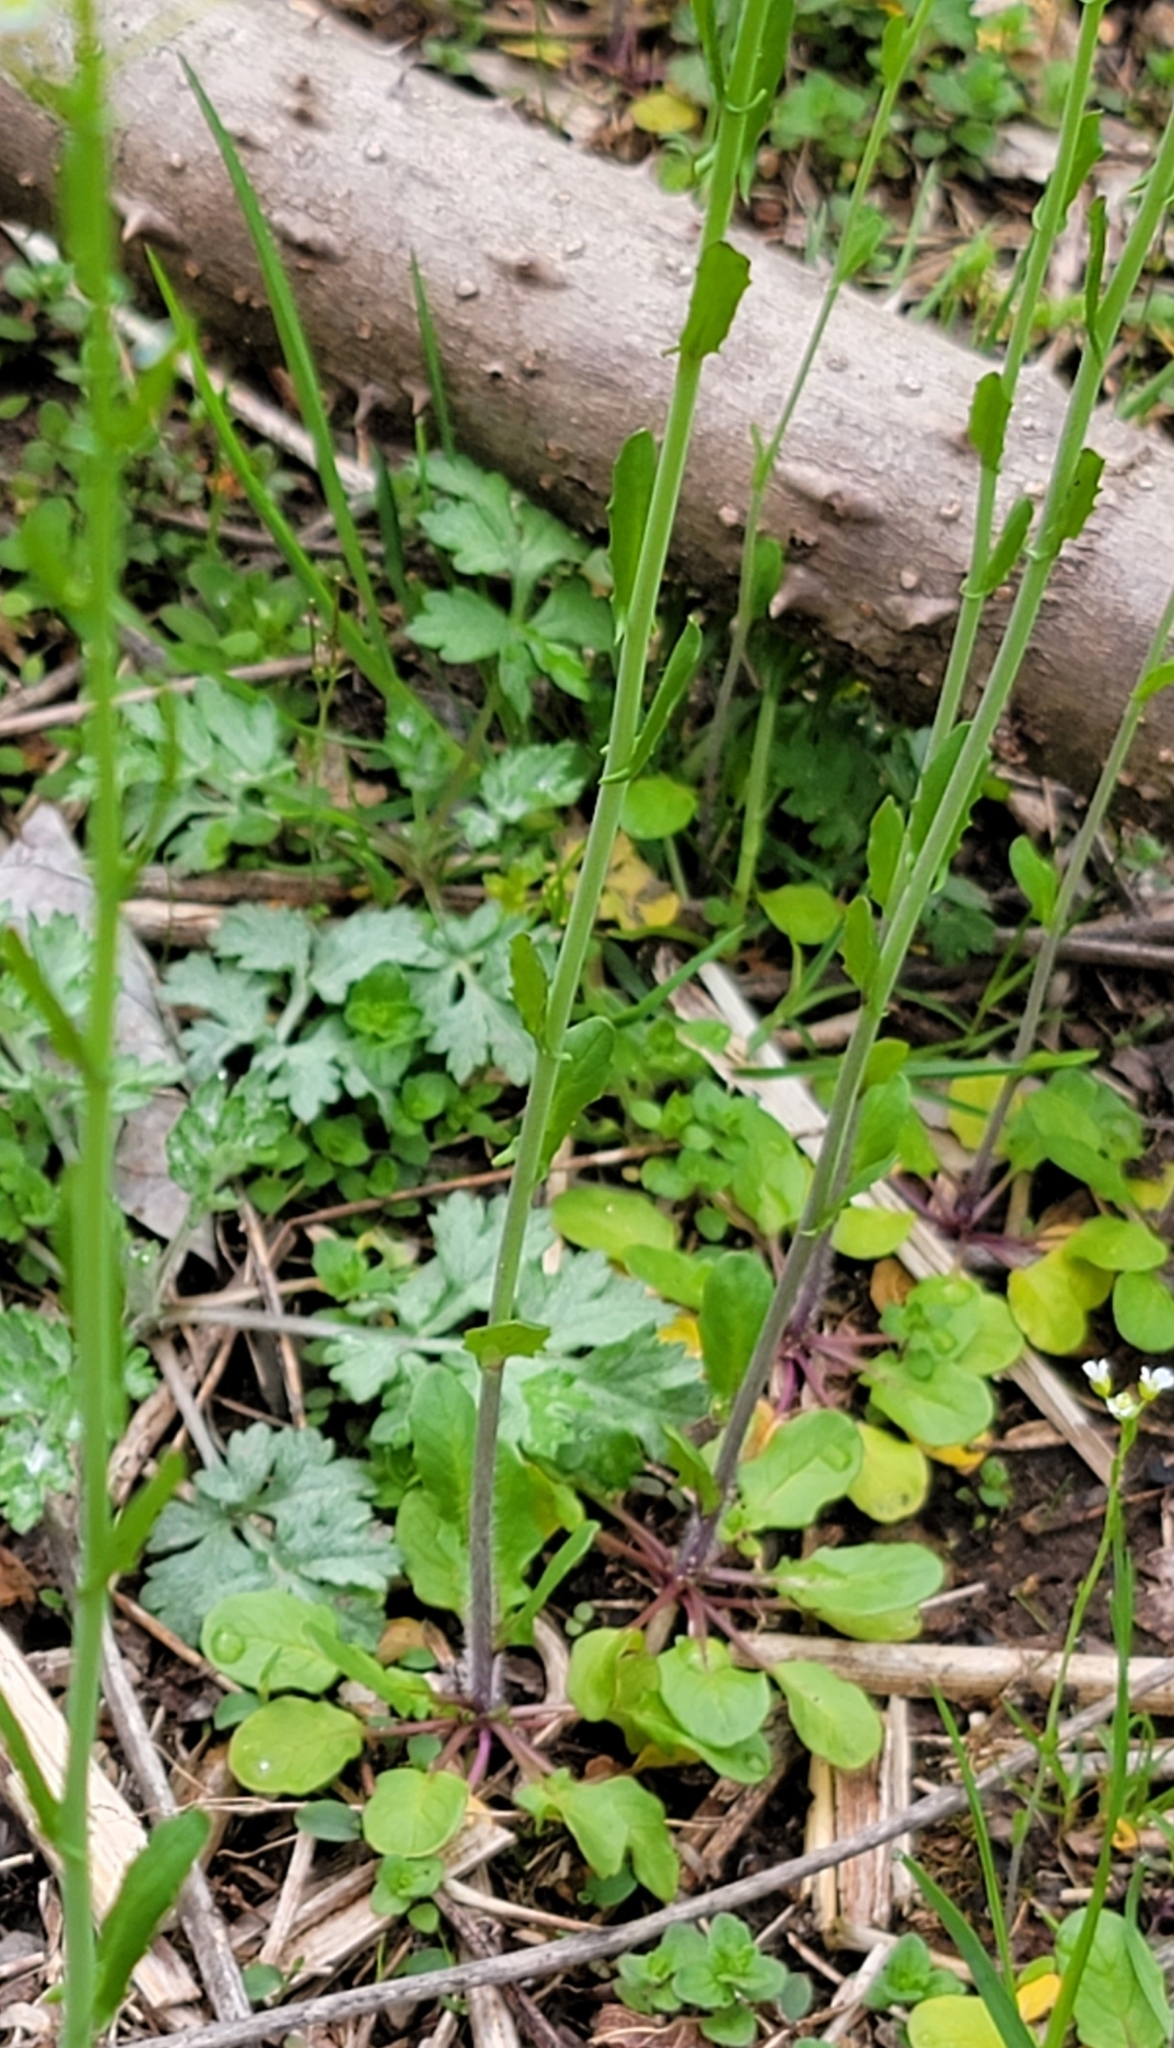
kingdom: Plantae
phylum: Tracheophyta
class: Magnoliopsida
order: Brassicales
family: Brassicaceae
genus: Mummenhoffia
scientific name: Mummenhoffia alliacea
